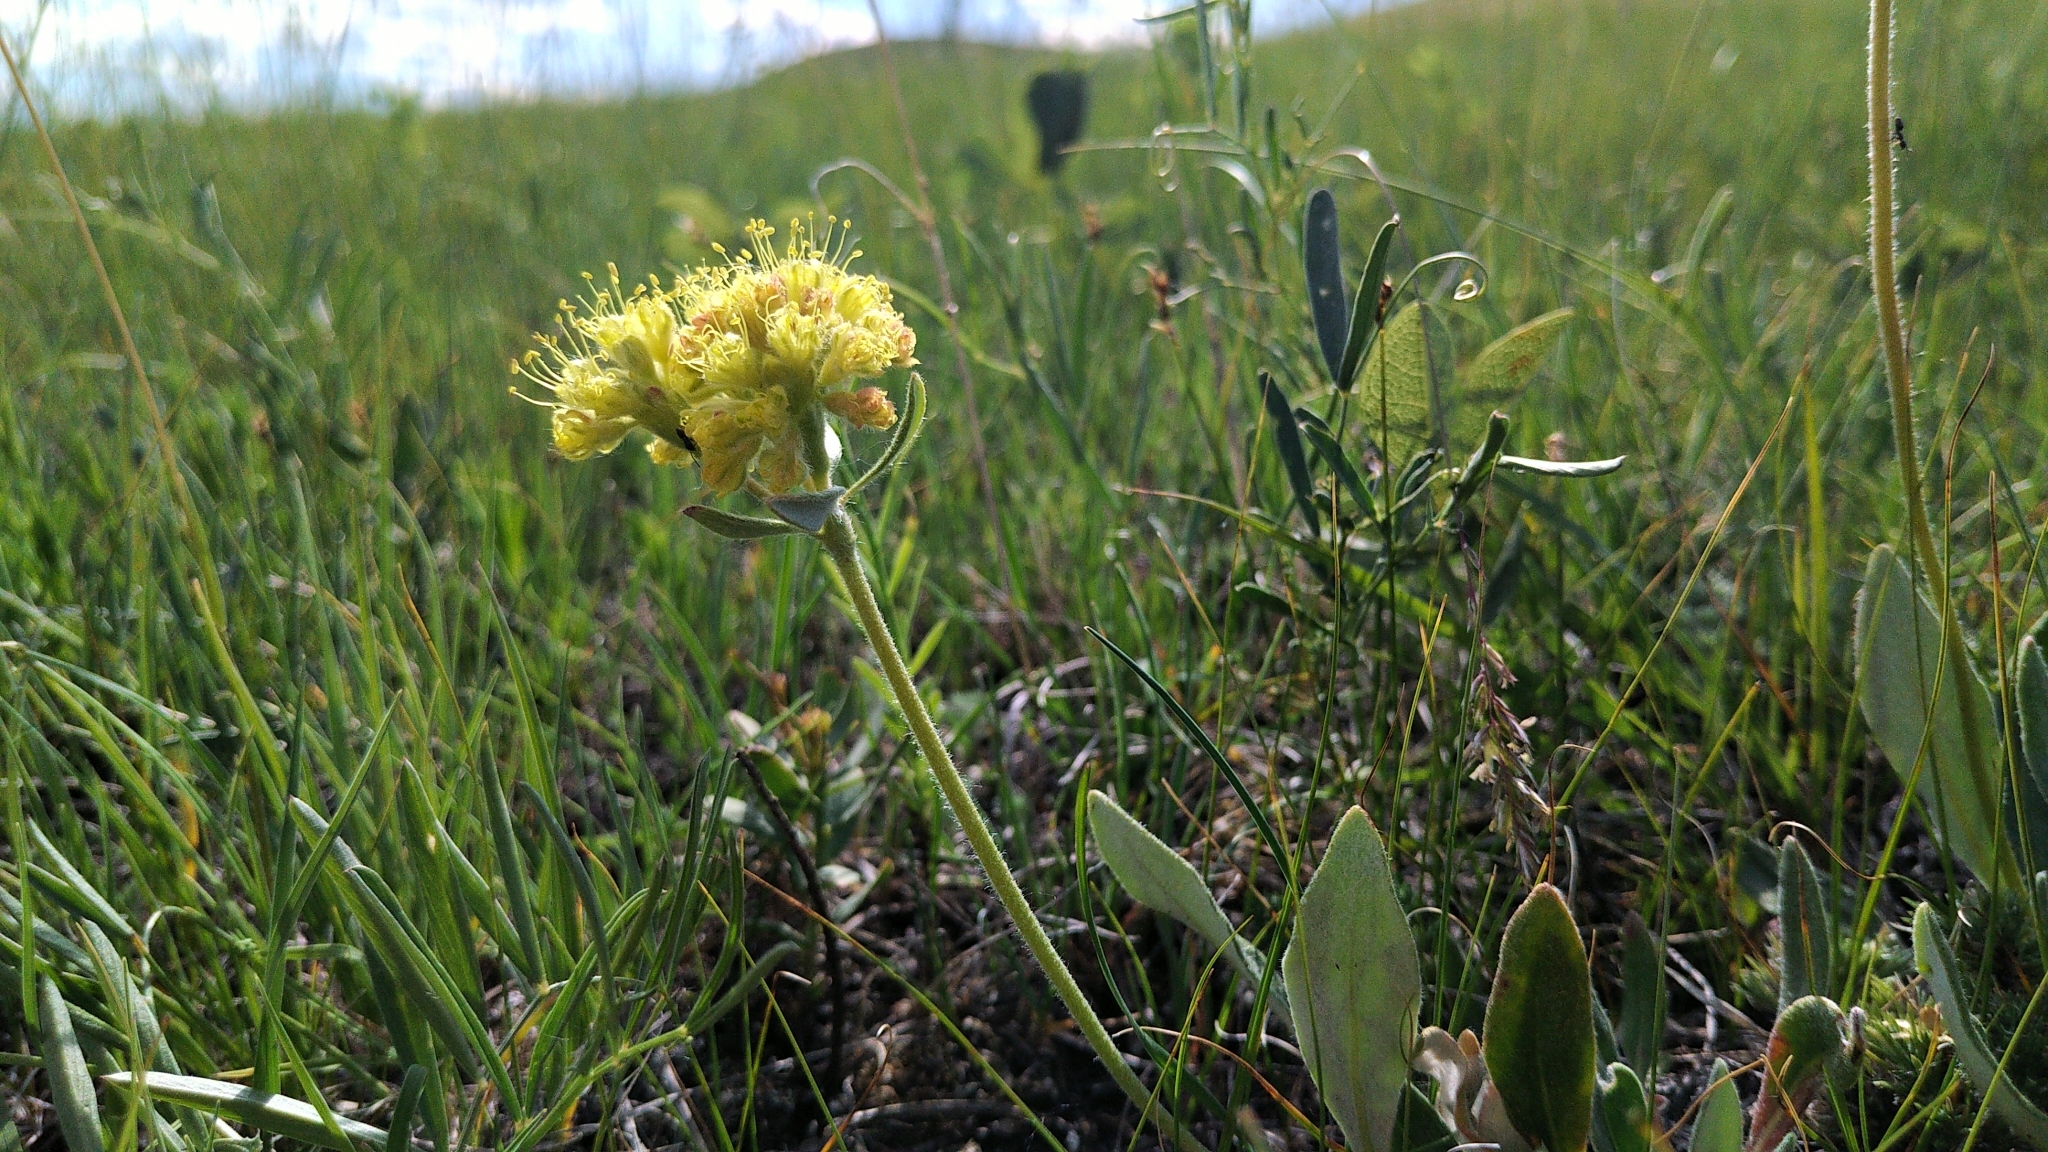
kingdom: Plantae
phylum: Tracheophyta
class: Magnoliopsida
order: Caryophyllales
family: Polygonaceae
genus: Eriogonum
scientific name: Eriogonum flavum
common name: Alpine golden wild buckwheat
